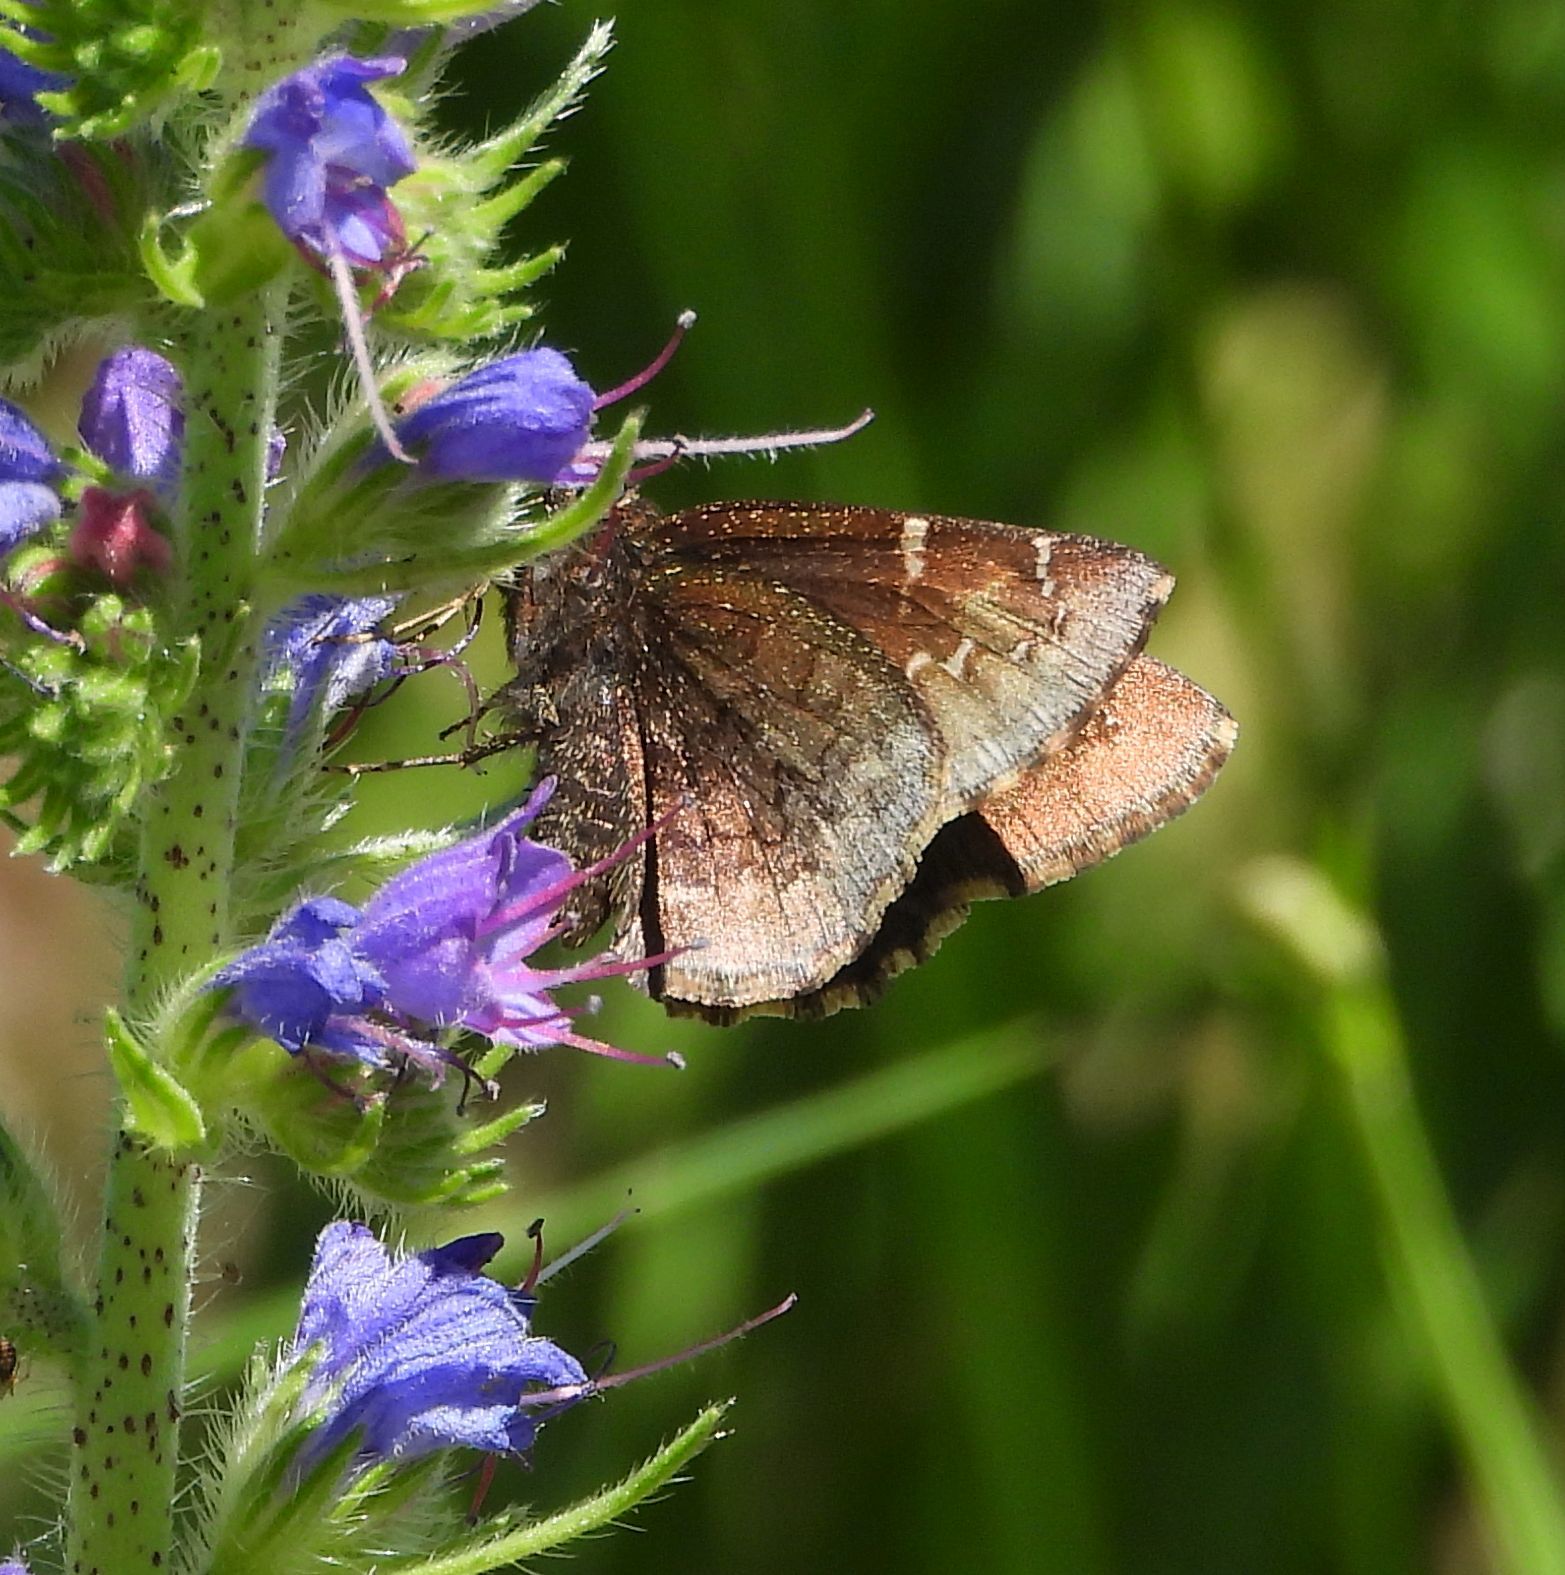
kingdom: Animalia
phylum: Arthropoda
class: Insecta
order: Lepidoptera
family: Hesperiidae
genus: Thorybes
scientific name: Thorybes pylades
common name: Northern cloudywing
